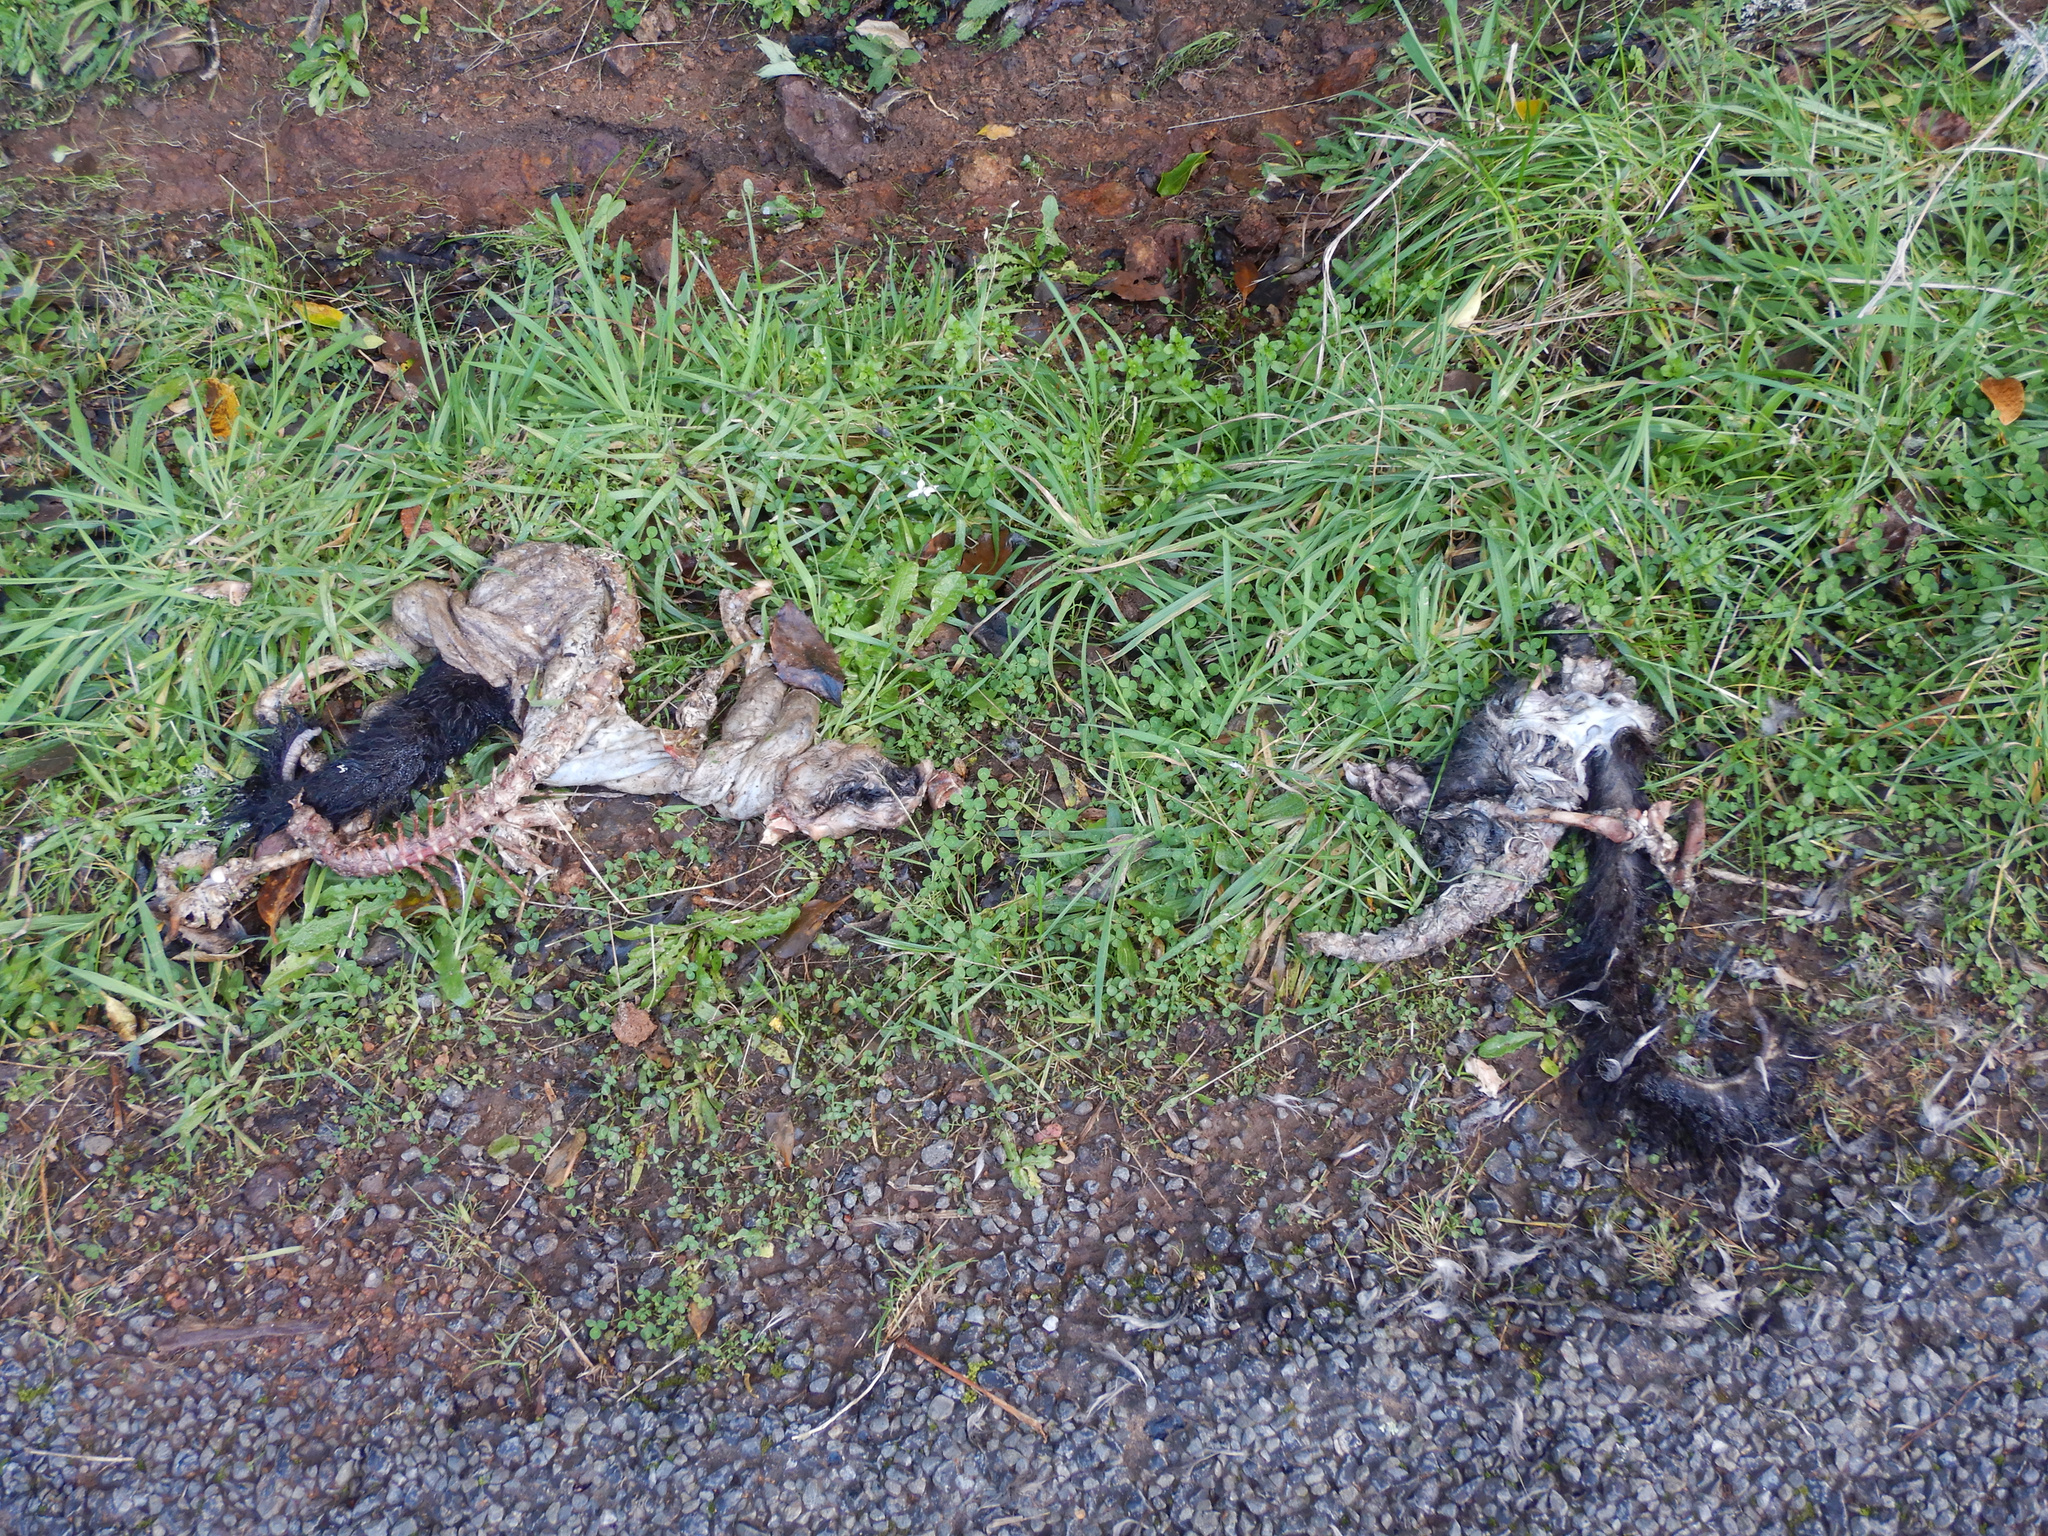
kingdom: Animalia
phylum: Chordata
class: Mammalia
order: Diprotodontia
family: Phalangeridae
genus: Trichosurus
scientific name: Trichosurus vulpecula
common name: Common brushtail
